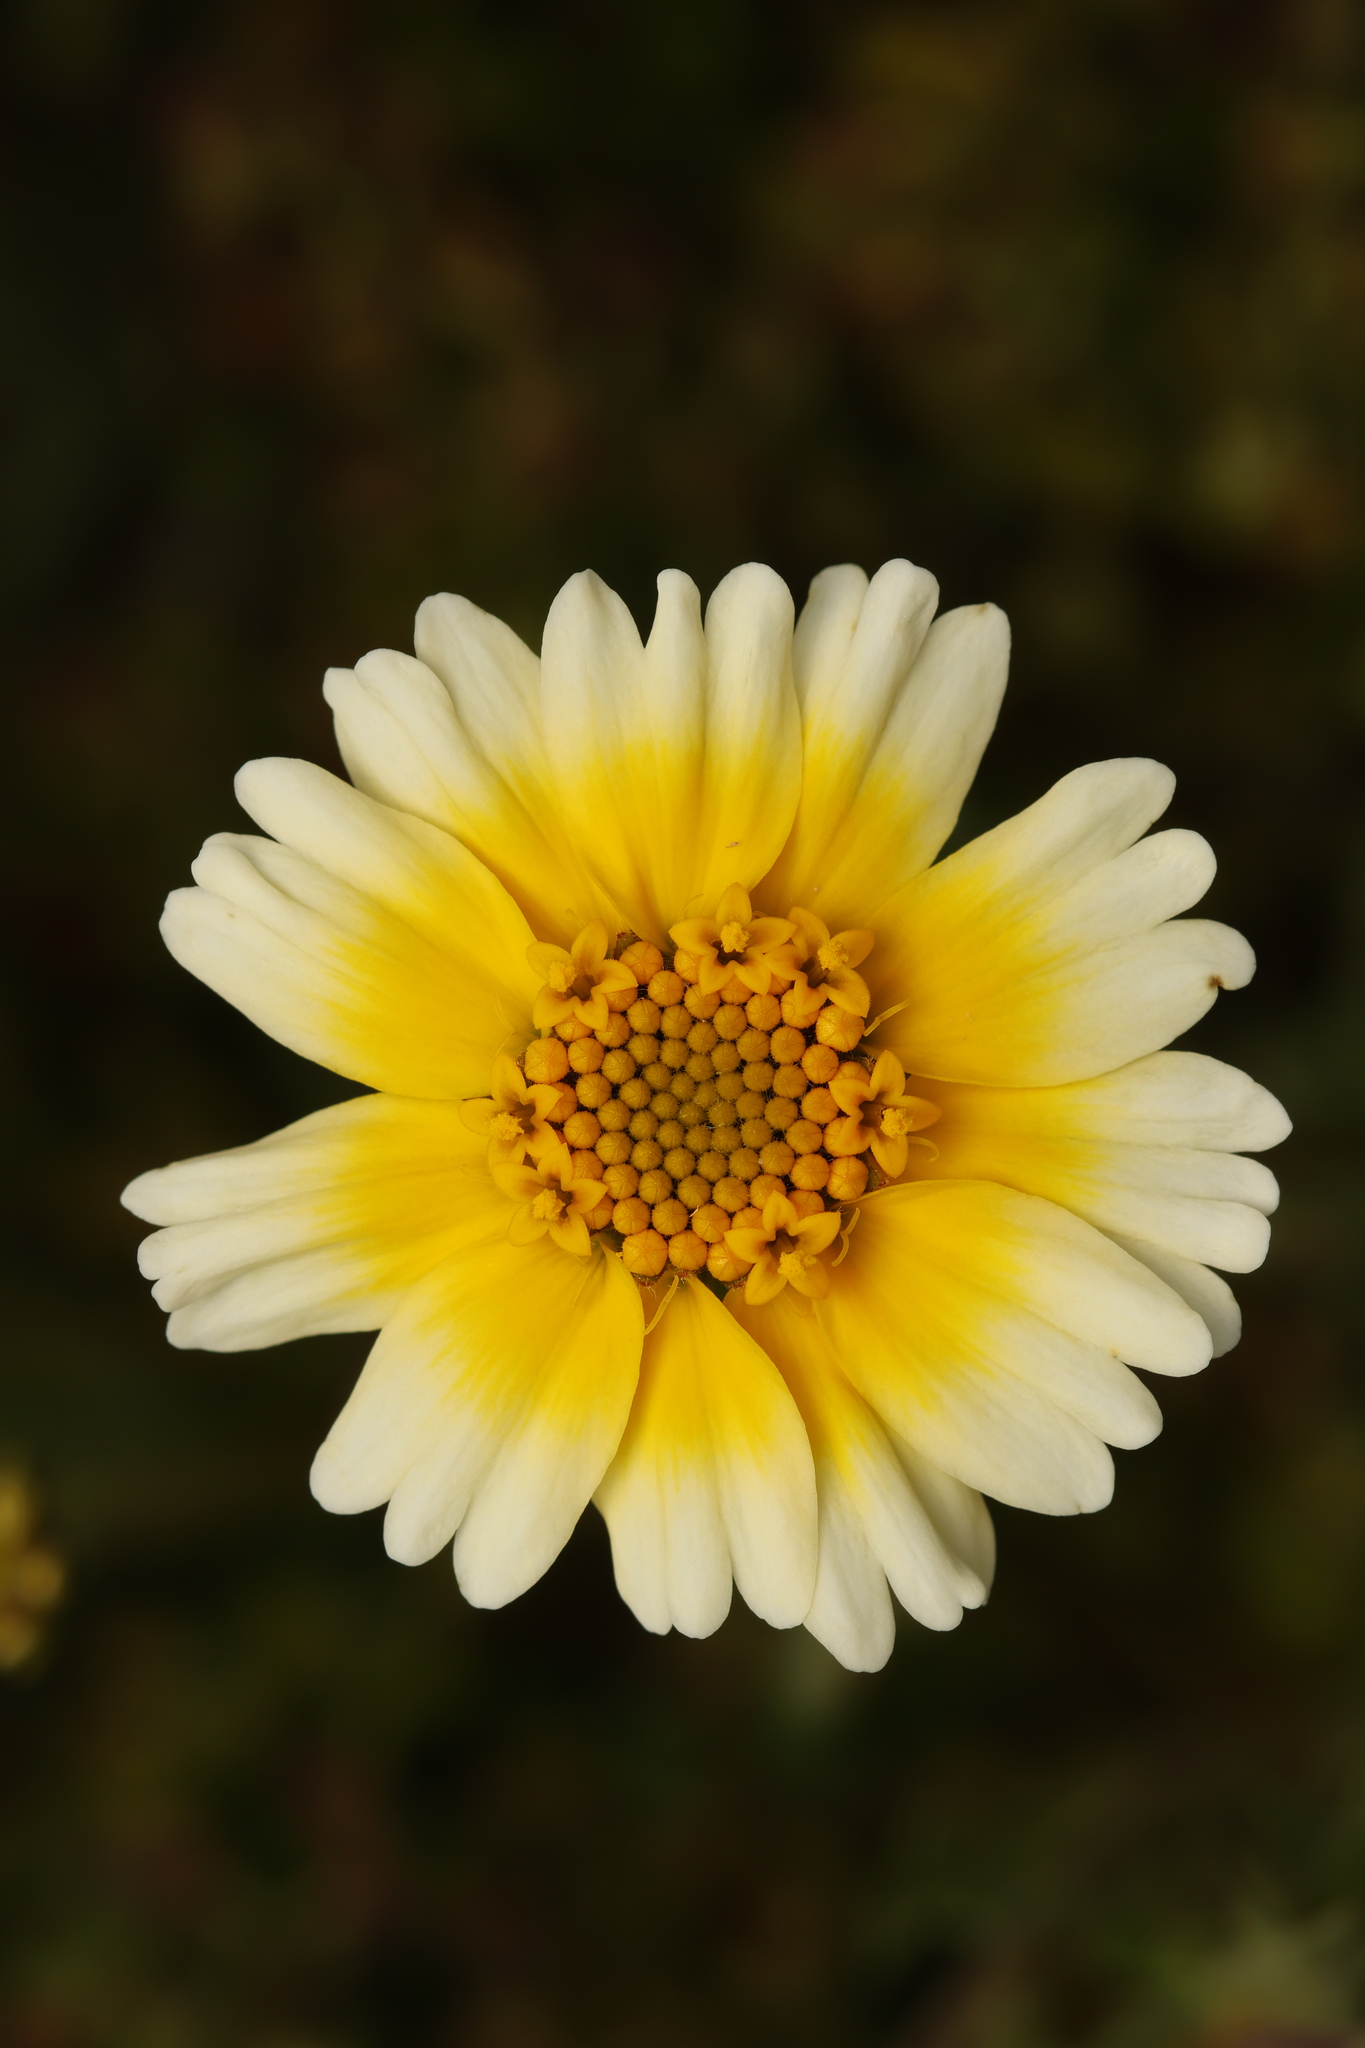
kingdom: Plantae
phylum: Tracheophyta
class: Magnoliopsida
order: Asterales
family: Asteraceae
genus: Layia
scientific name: Layia munzii
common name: Munz's tidy-tips
